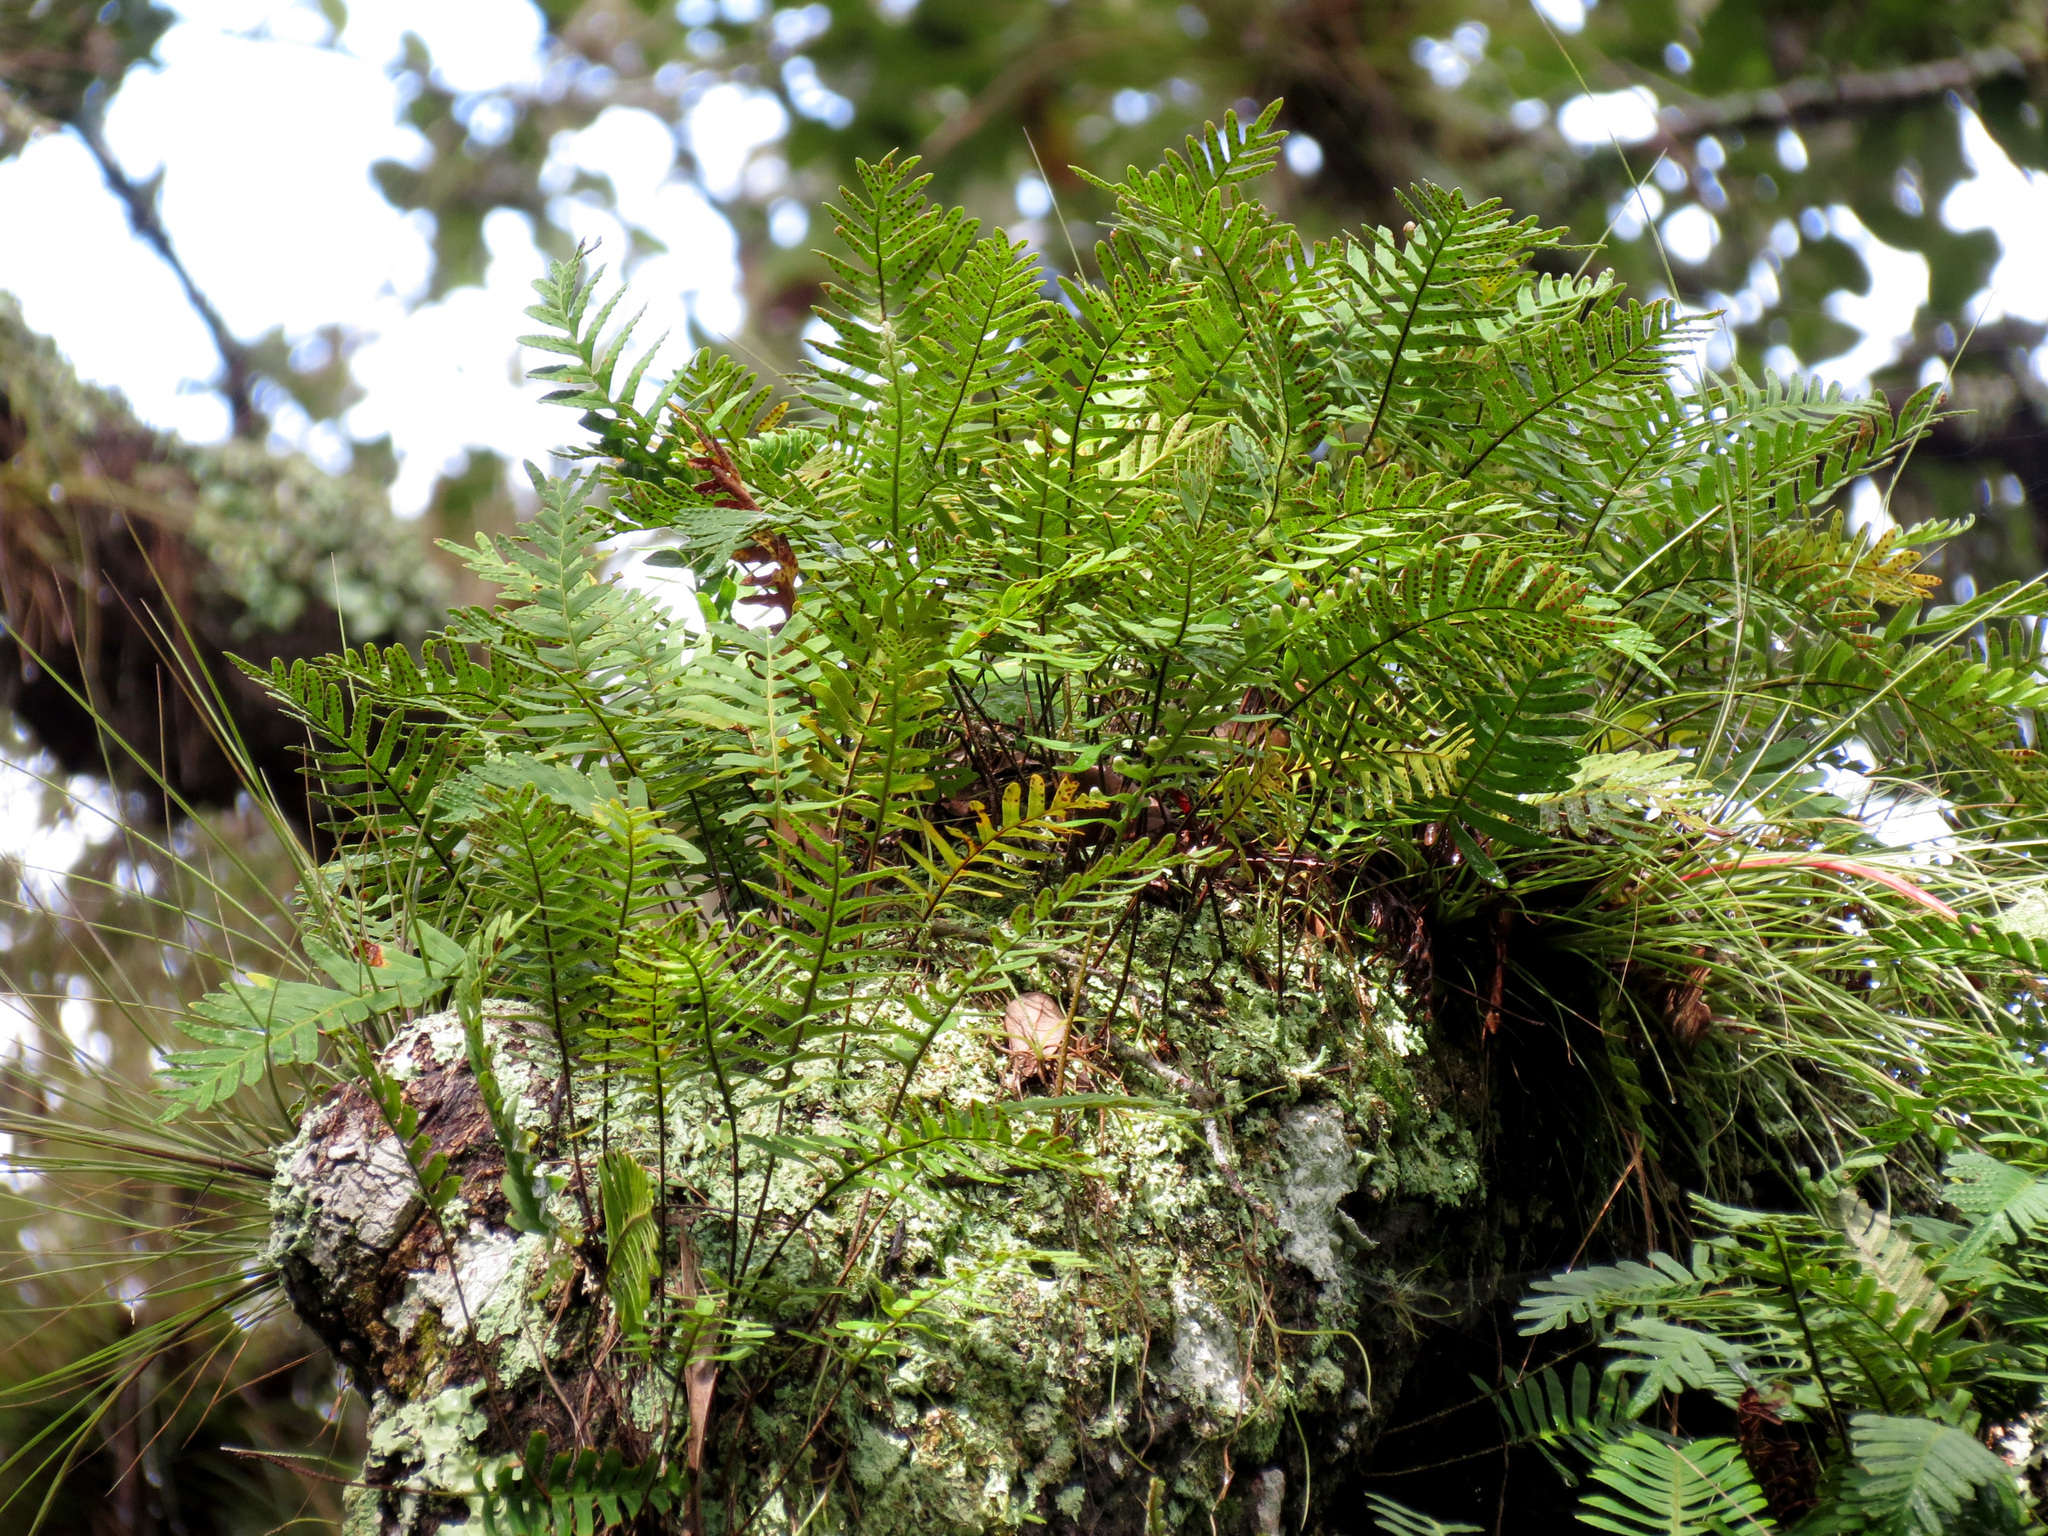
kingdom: Plantae
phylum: Tracheophyta
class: Polypodiopsida
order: Polypodiales
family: Polypodiaceae
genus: Pleopeltis
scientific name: Pleopeltis michauxiana
